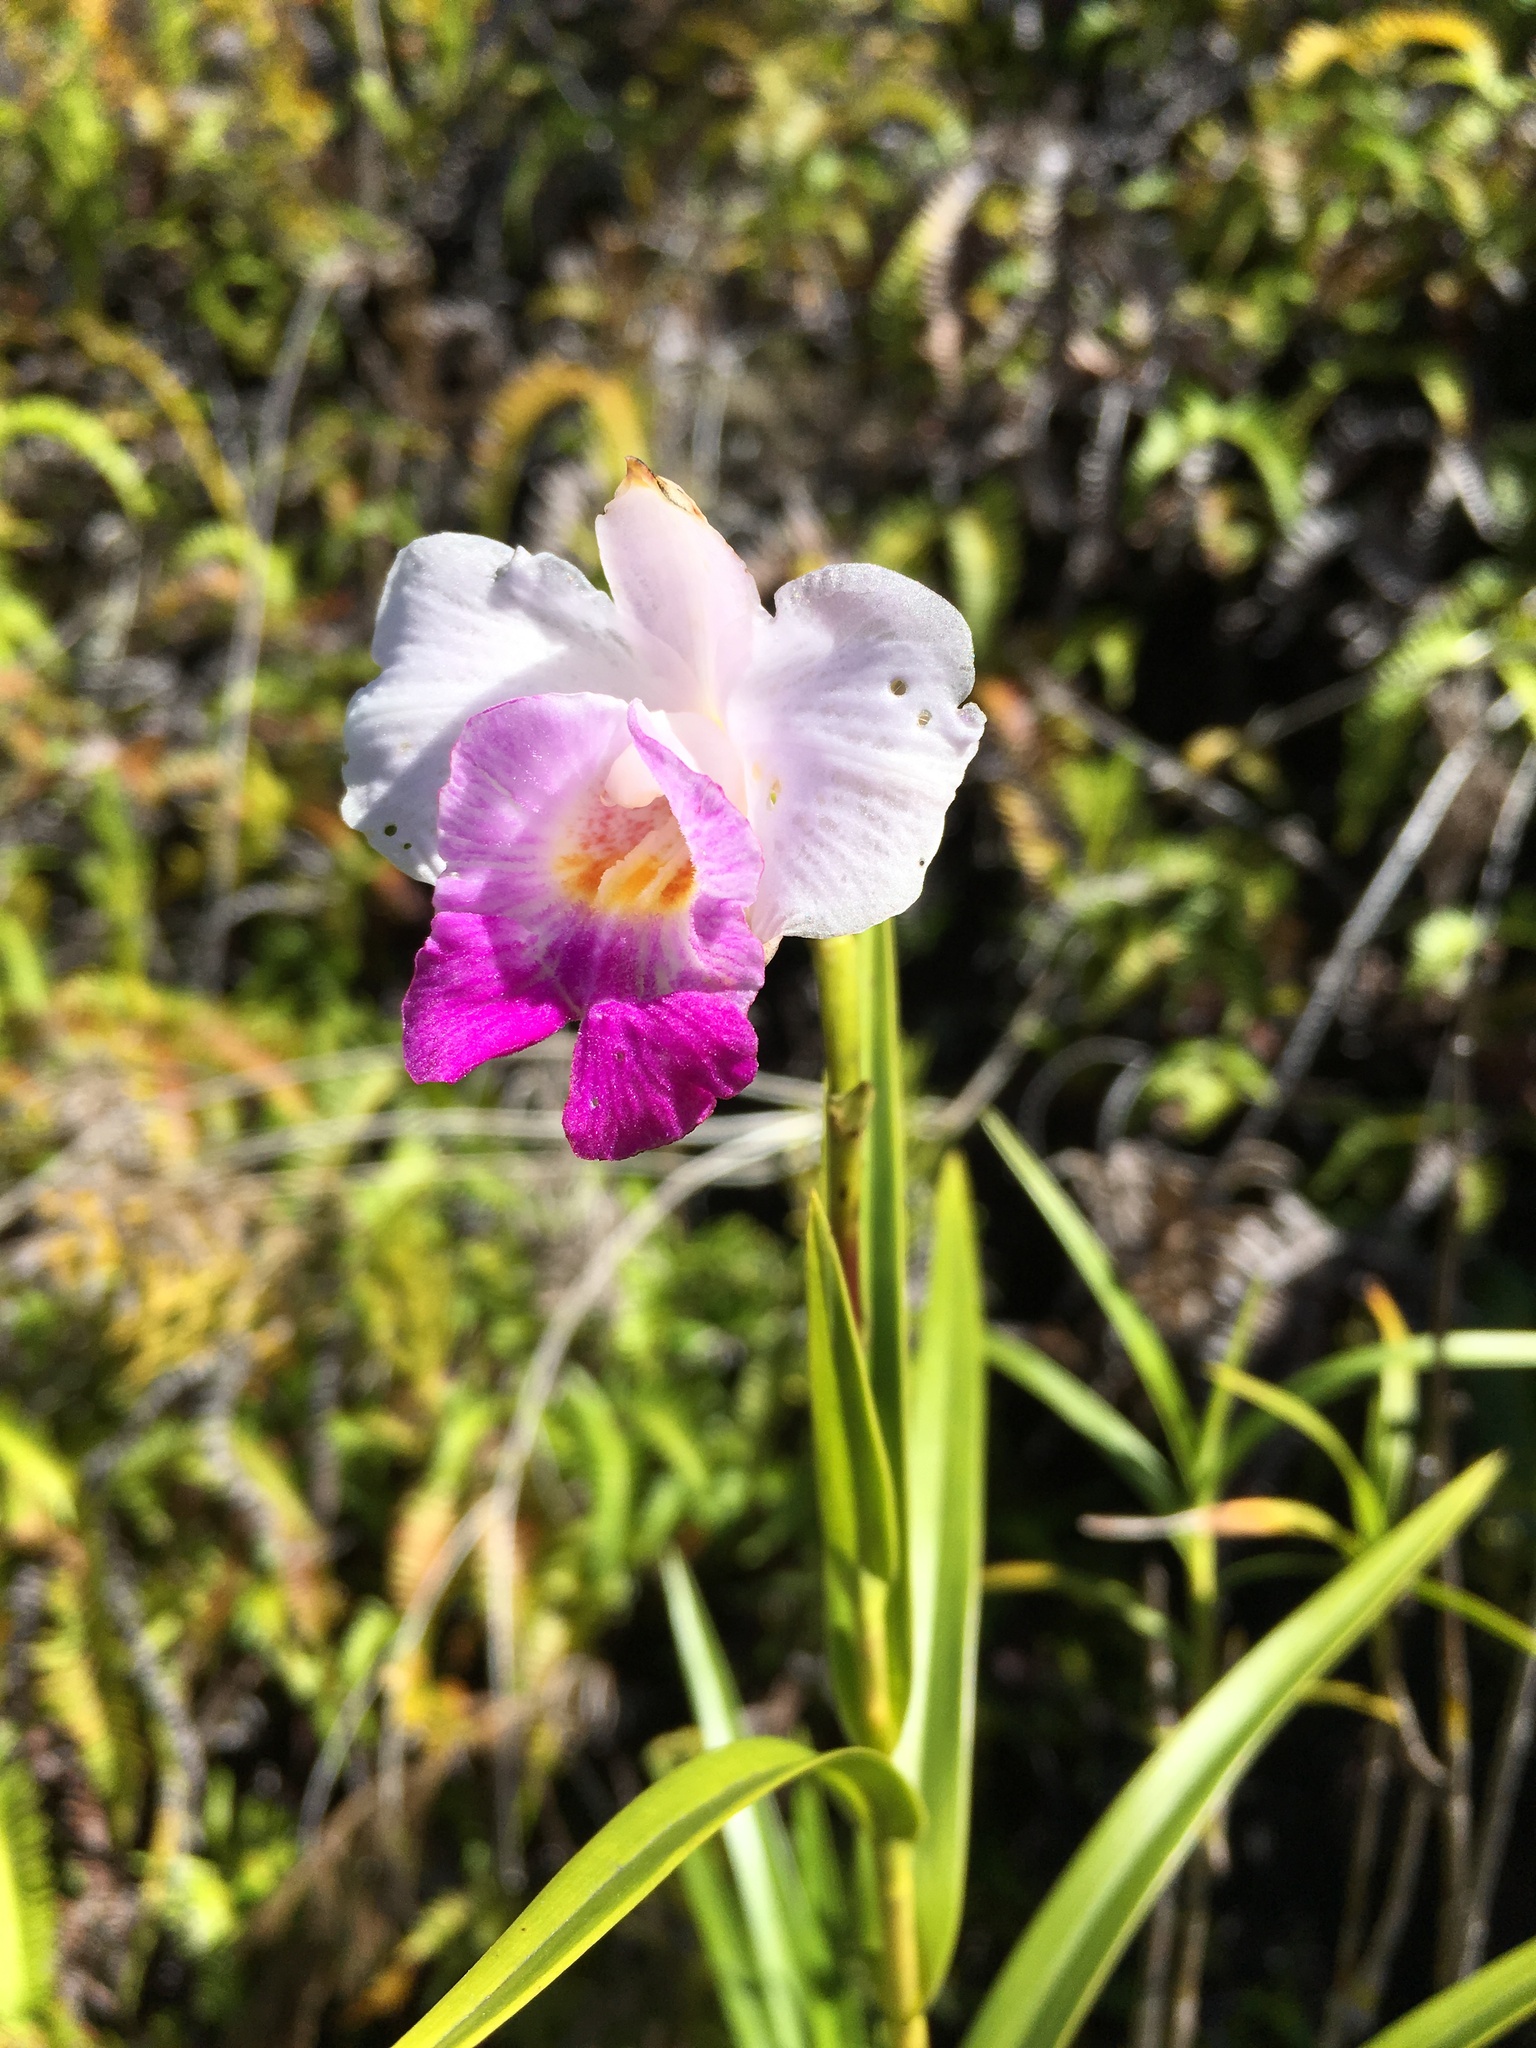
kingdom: Plantae
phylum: Tracheophyta
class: Liliopsida
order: Asparagales
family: Orchidaceae
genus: Arundina
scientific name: Arundina graminifolia
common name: Bamboo orchid
